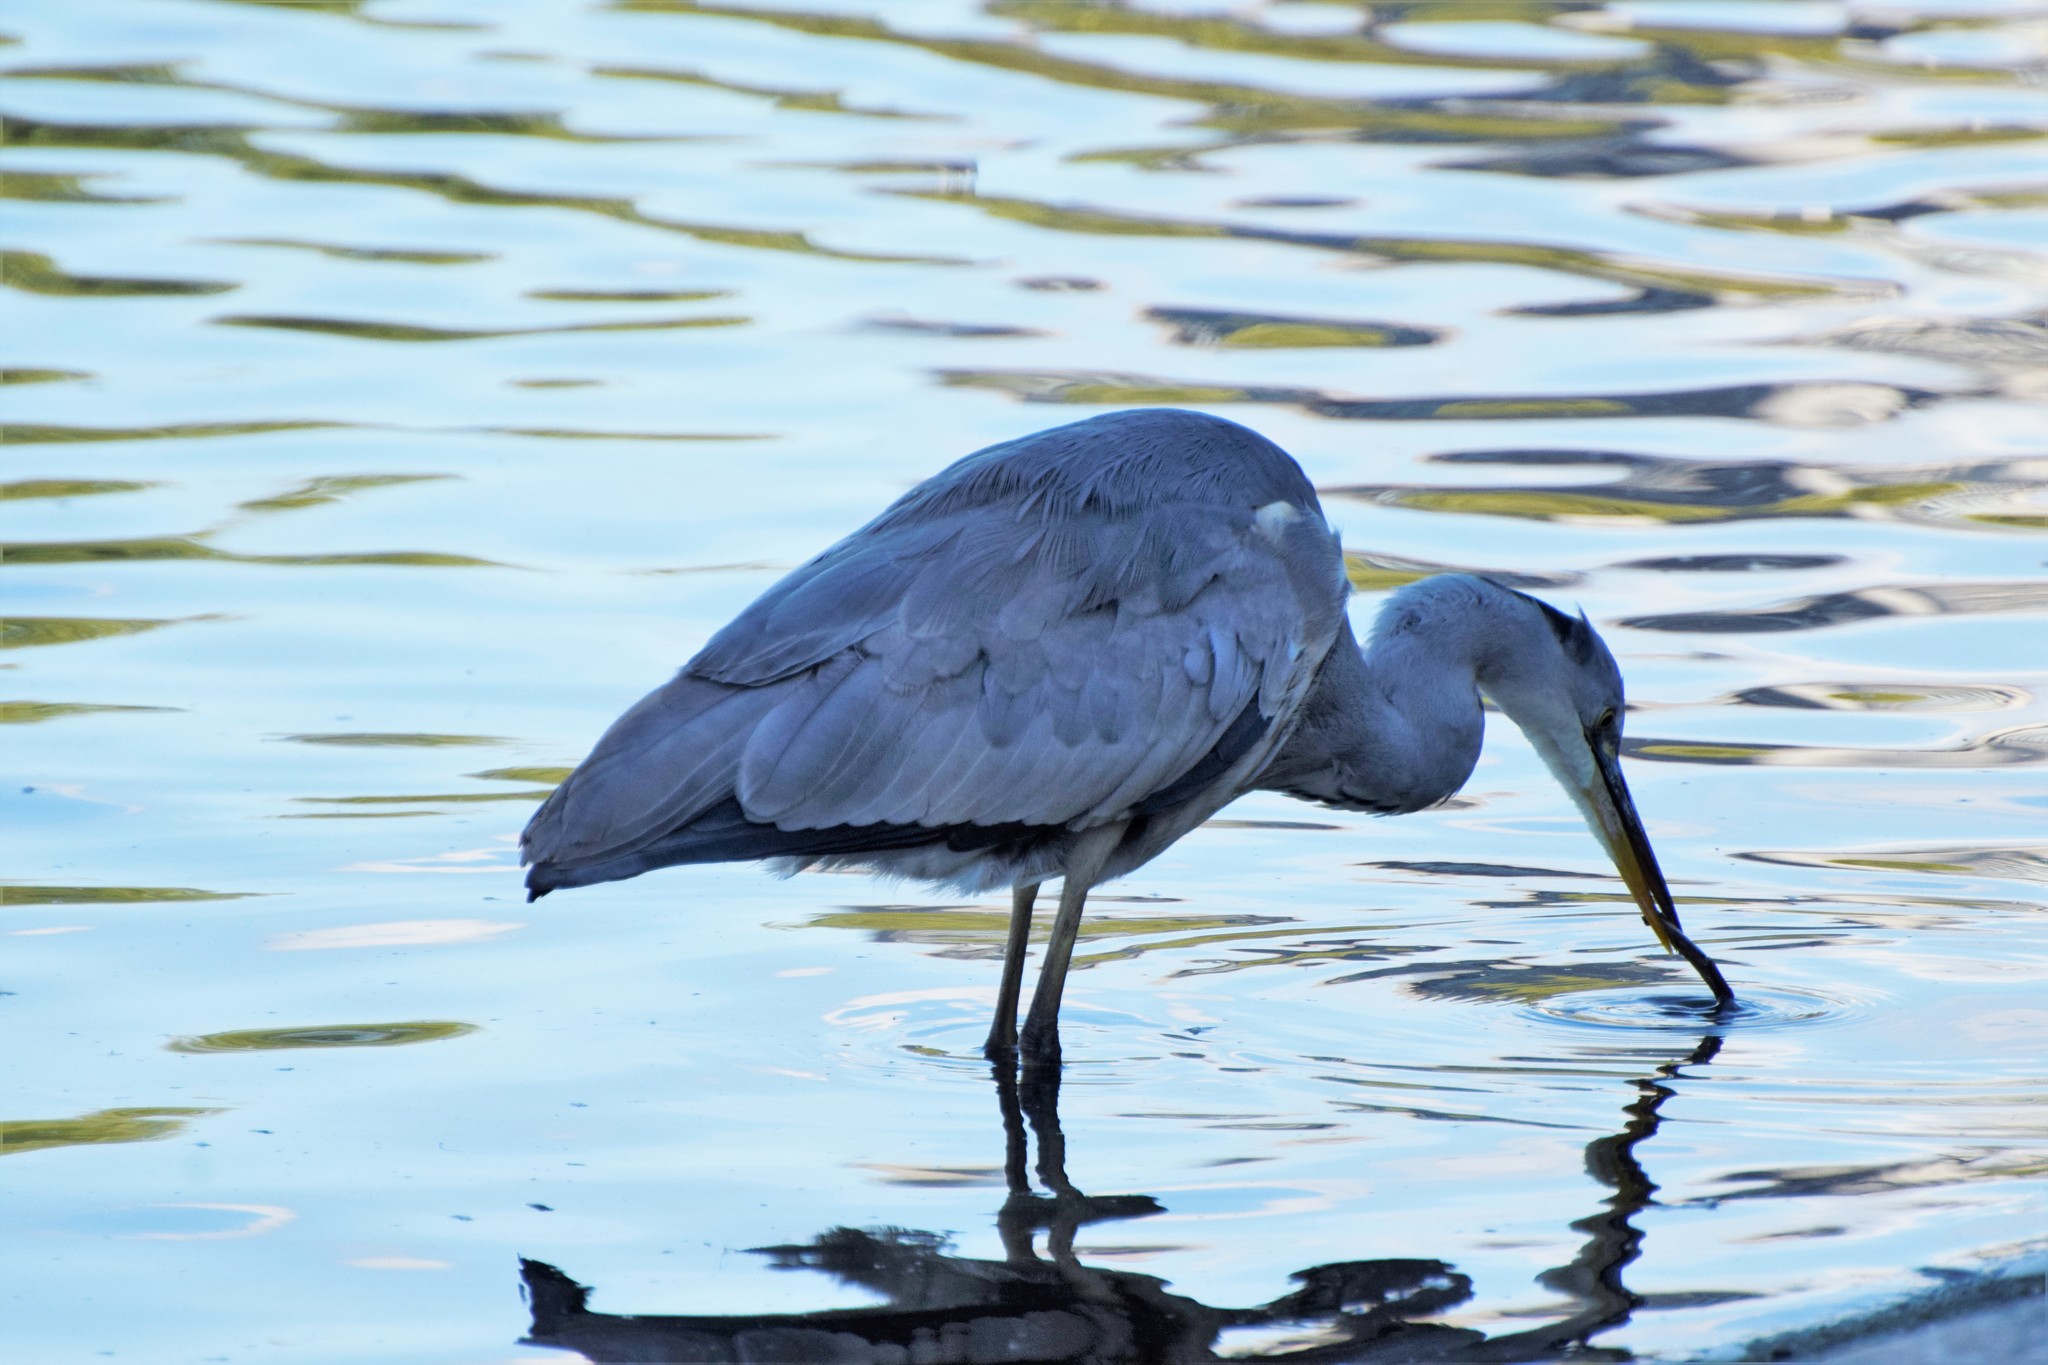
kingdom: Animalia
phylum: Chordata
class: Aves
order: Pelecaniformes
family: Ardeidae
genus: Ardea
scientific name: Ardea cinerea
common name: Grey heron
